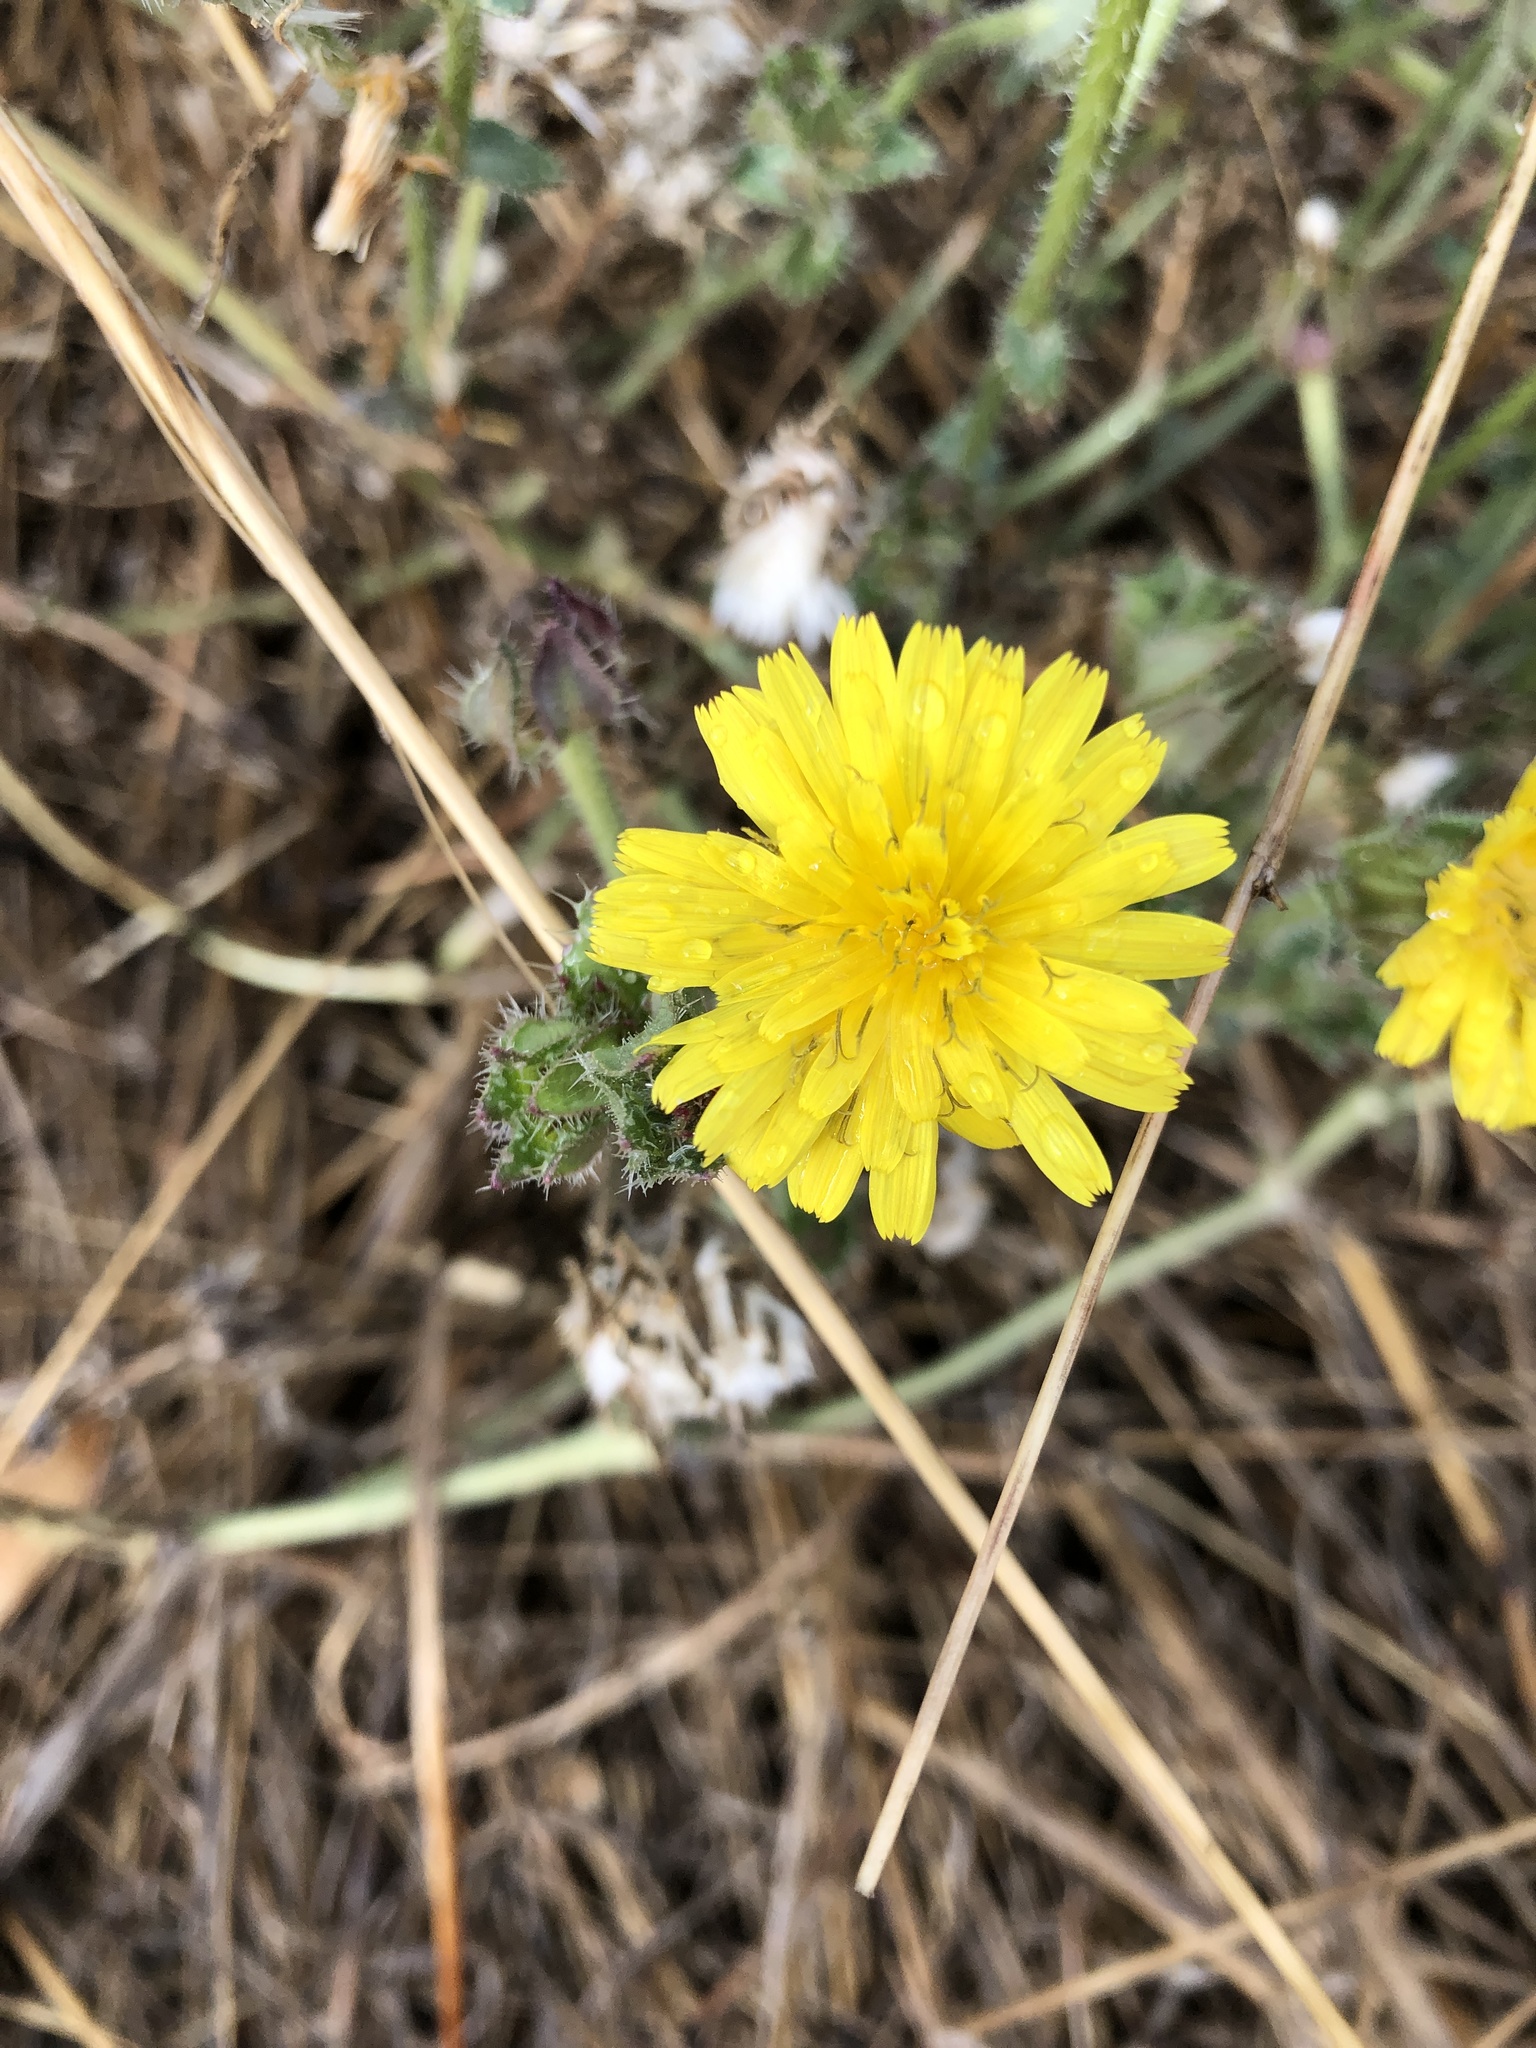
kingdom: Plantae
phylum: Tracheophyta
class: Magnoliopsida
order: Asterales
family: Asteraceae
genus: Helminthotheca
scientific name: Helminthotheca echioides
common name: Ox-tongue
